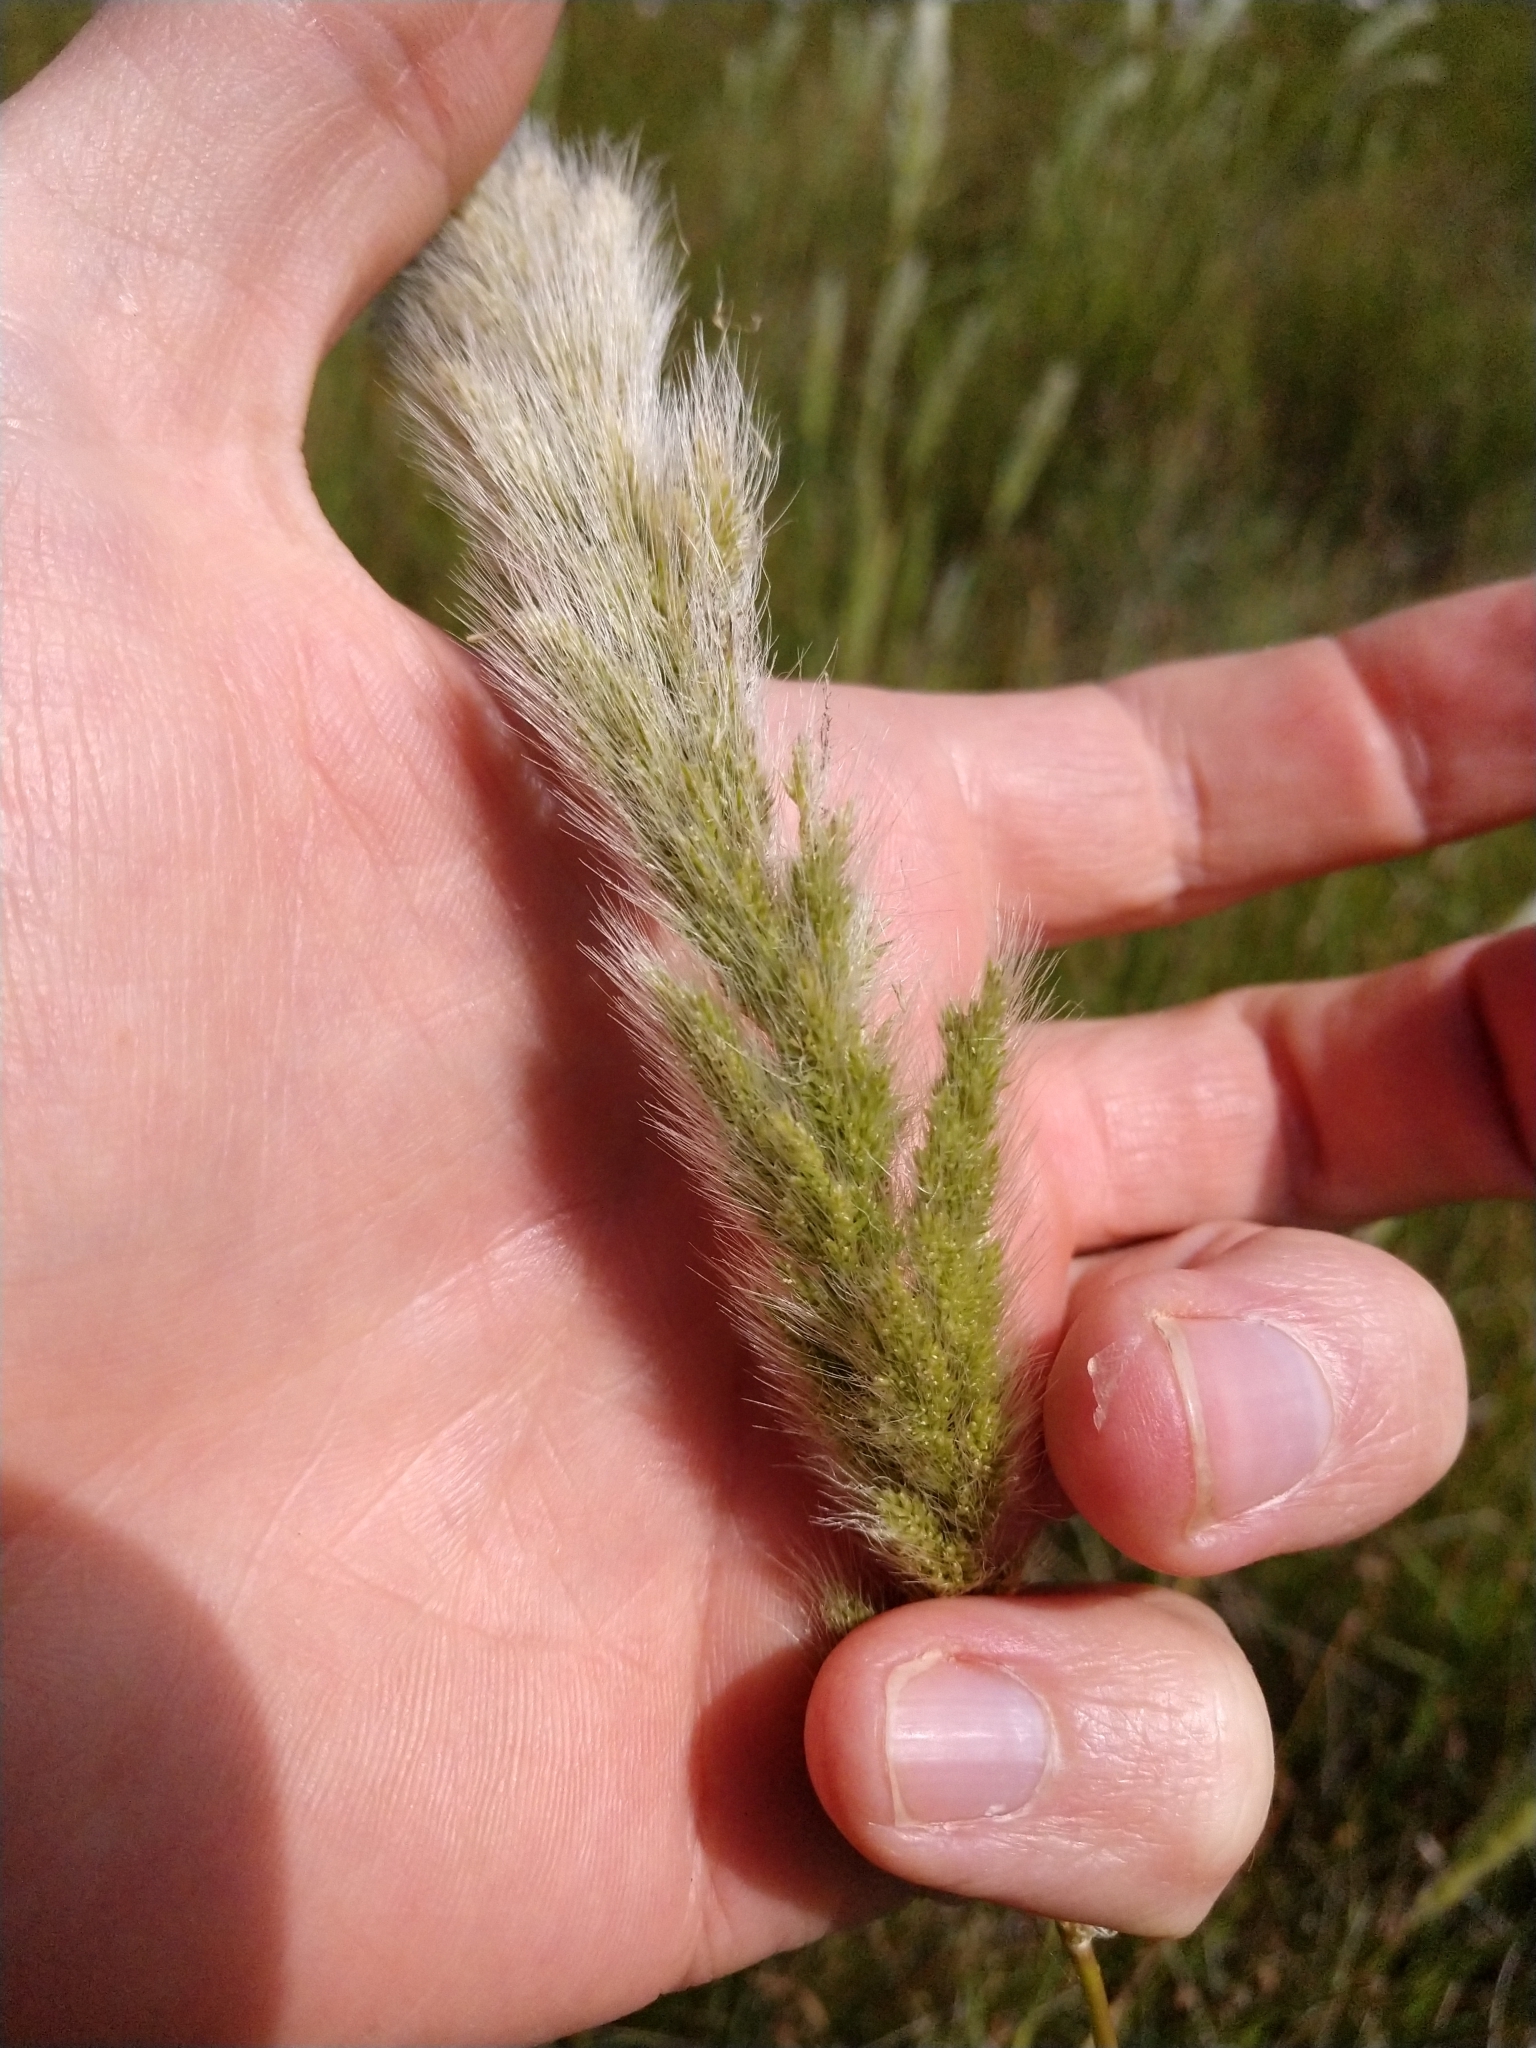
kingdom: Plantae
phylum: Tracheophyta
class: Liliopsida
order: Poales
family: Poaceae
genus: Polypogon
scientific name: Polypogon monspeliensis
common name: Annual rabbitsfoot grass
